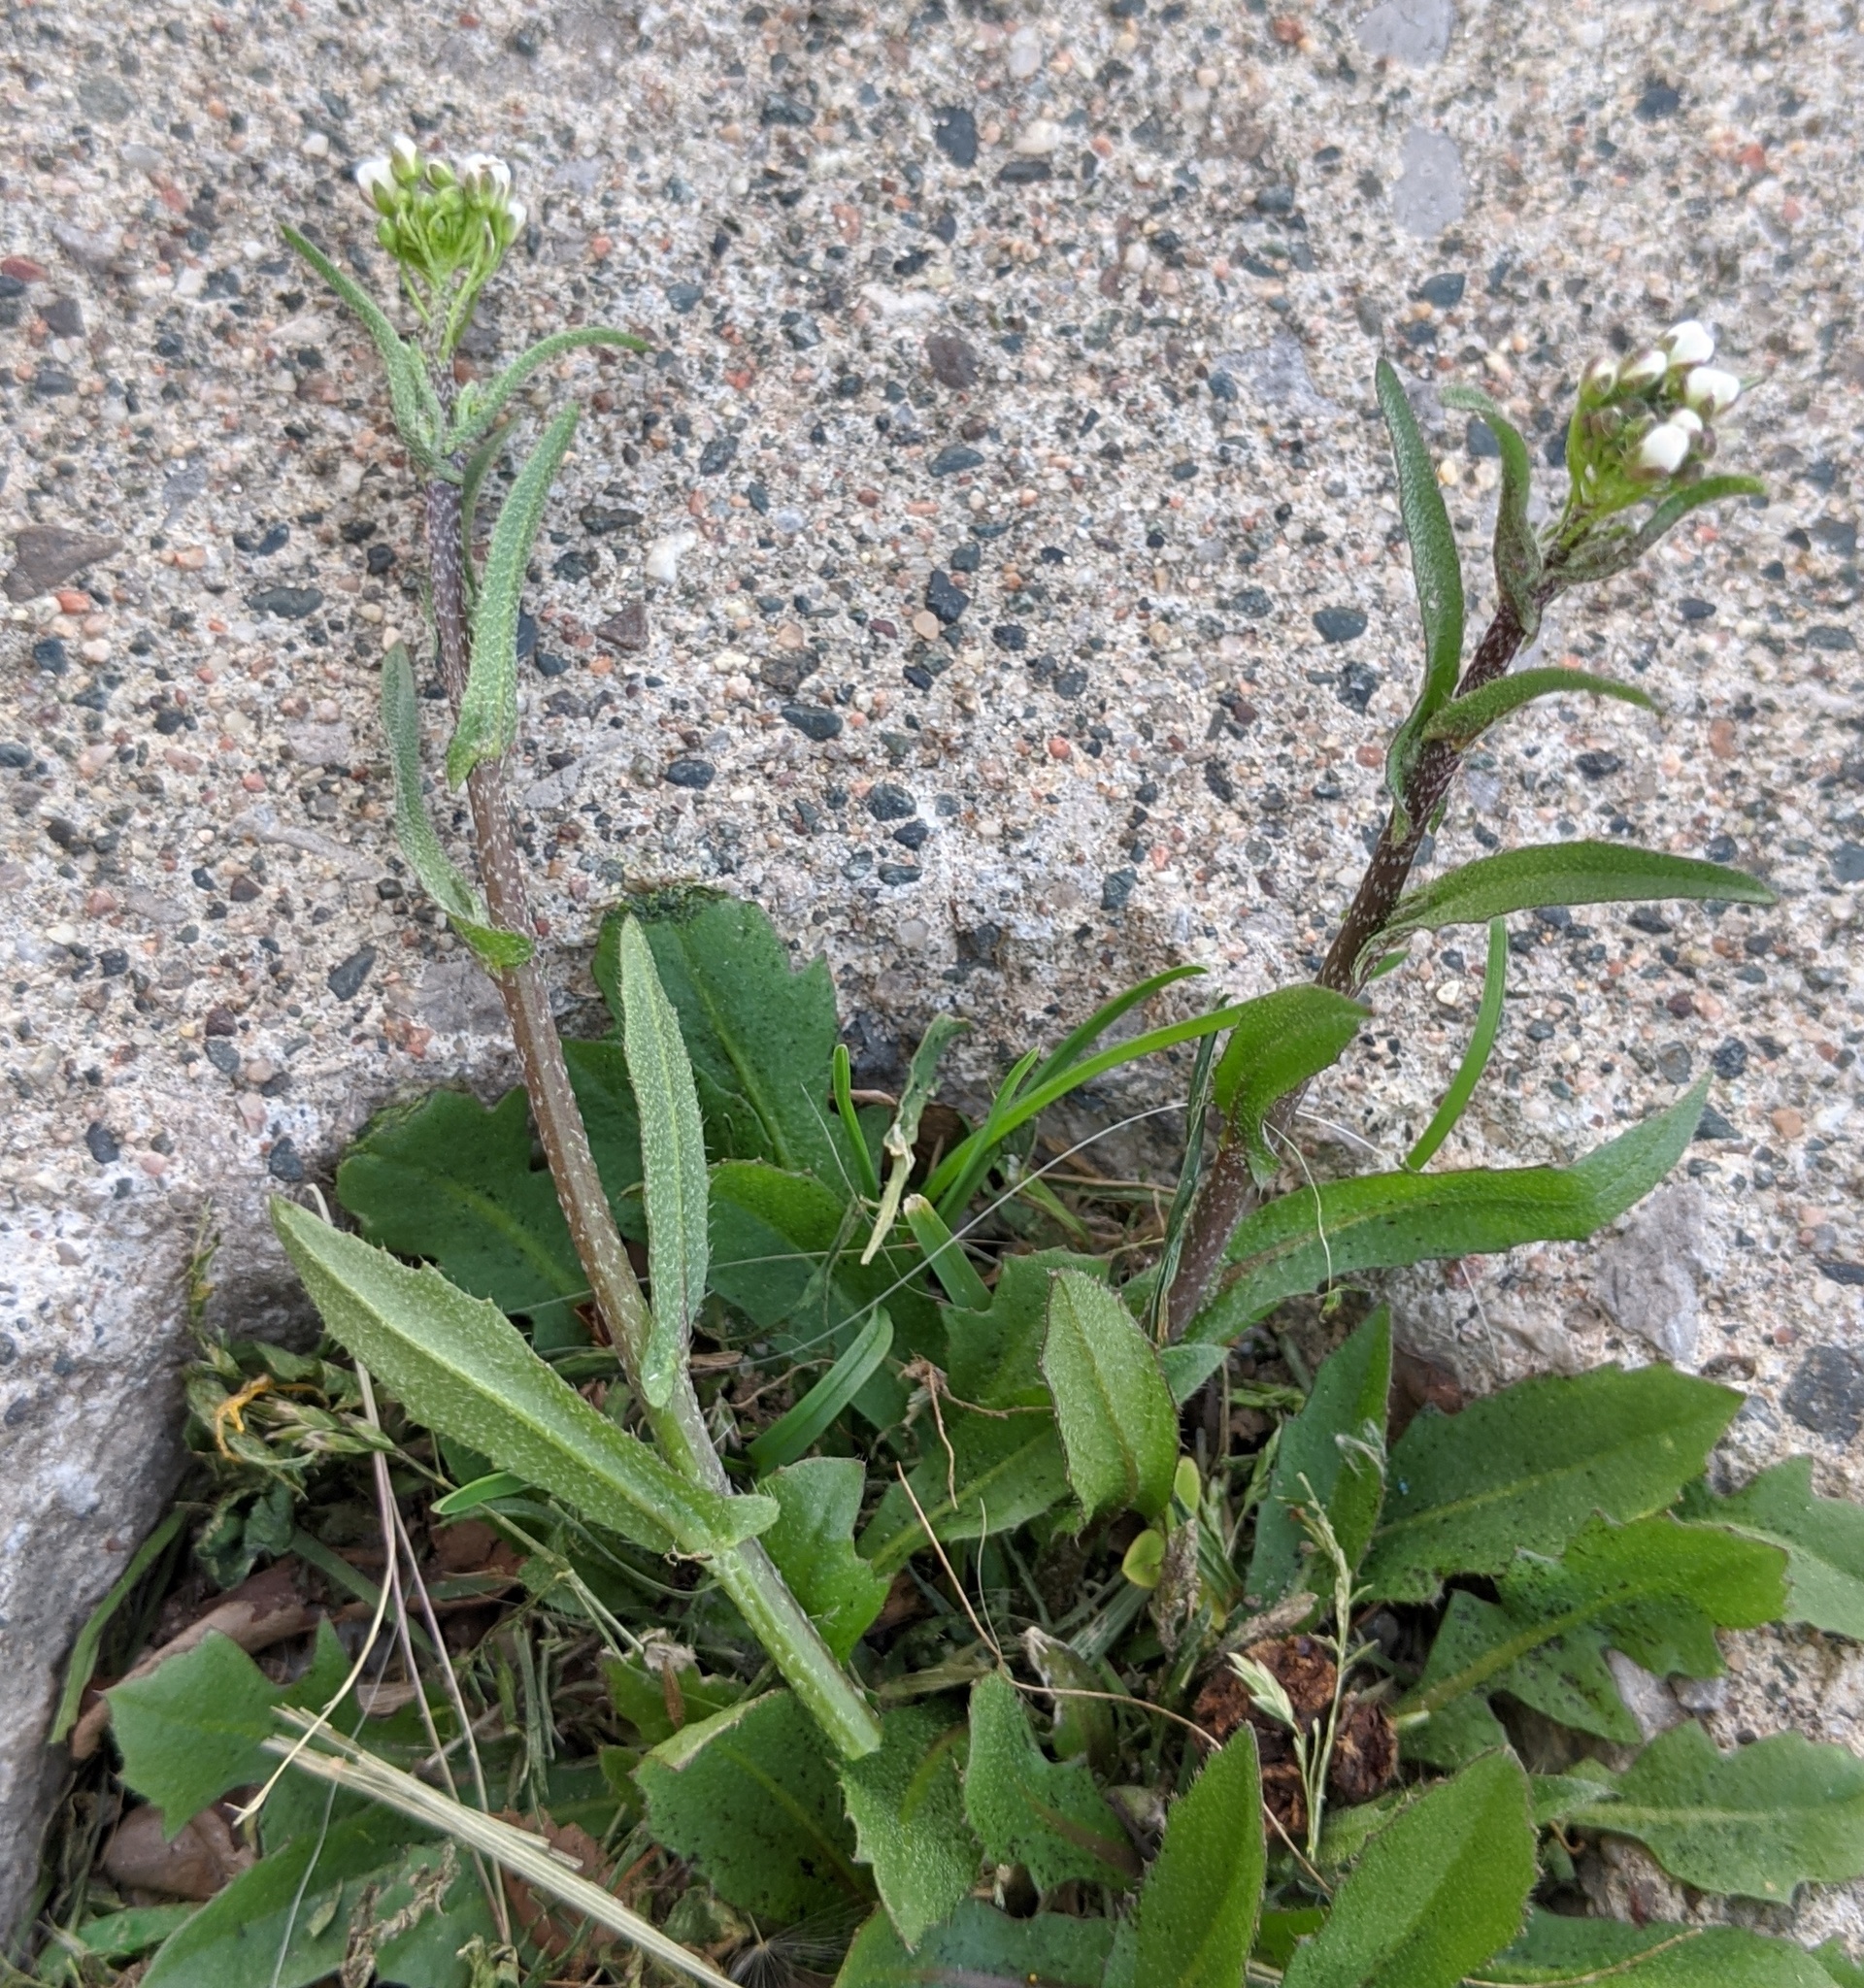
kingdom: Plantae
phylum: Tracheophyta
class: Magnoliopsida
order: Brassicales
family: Brassicaceae
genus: Capsella
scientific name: Capsella bursa-pastoris
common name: Shepherd's purse
